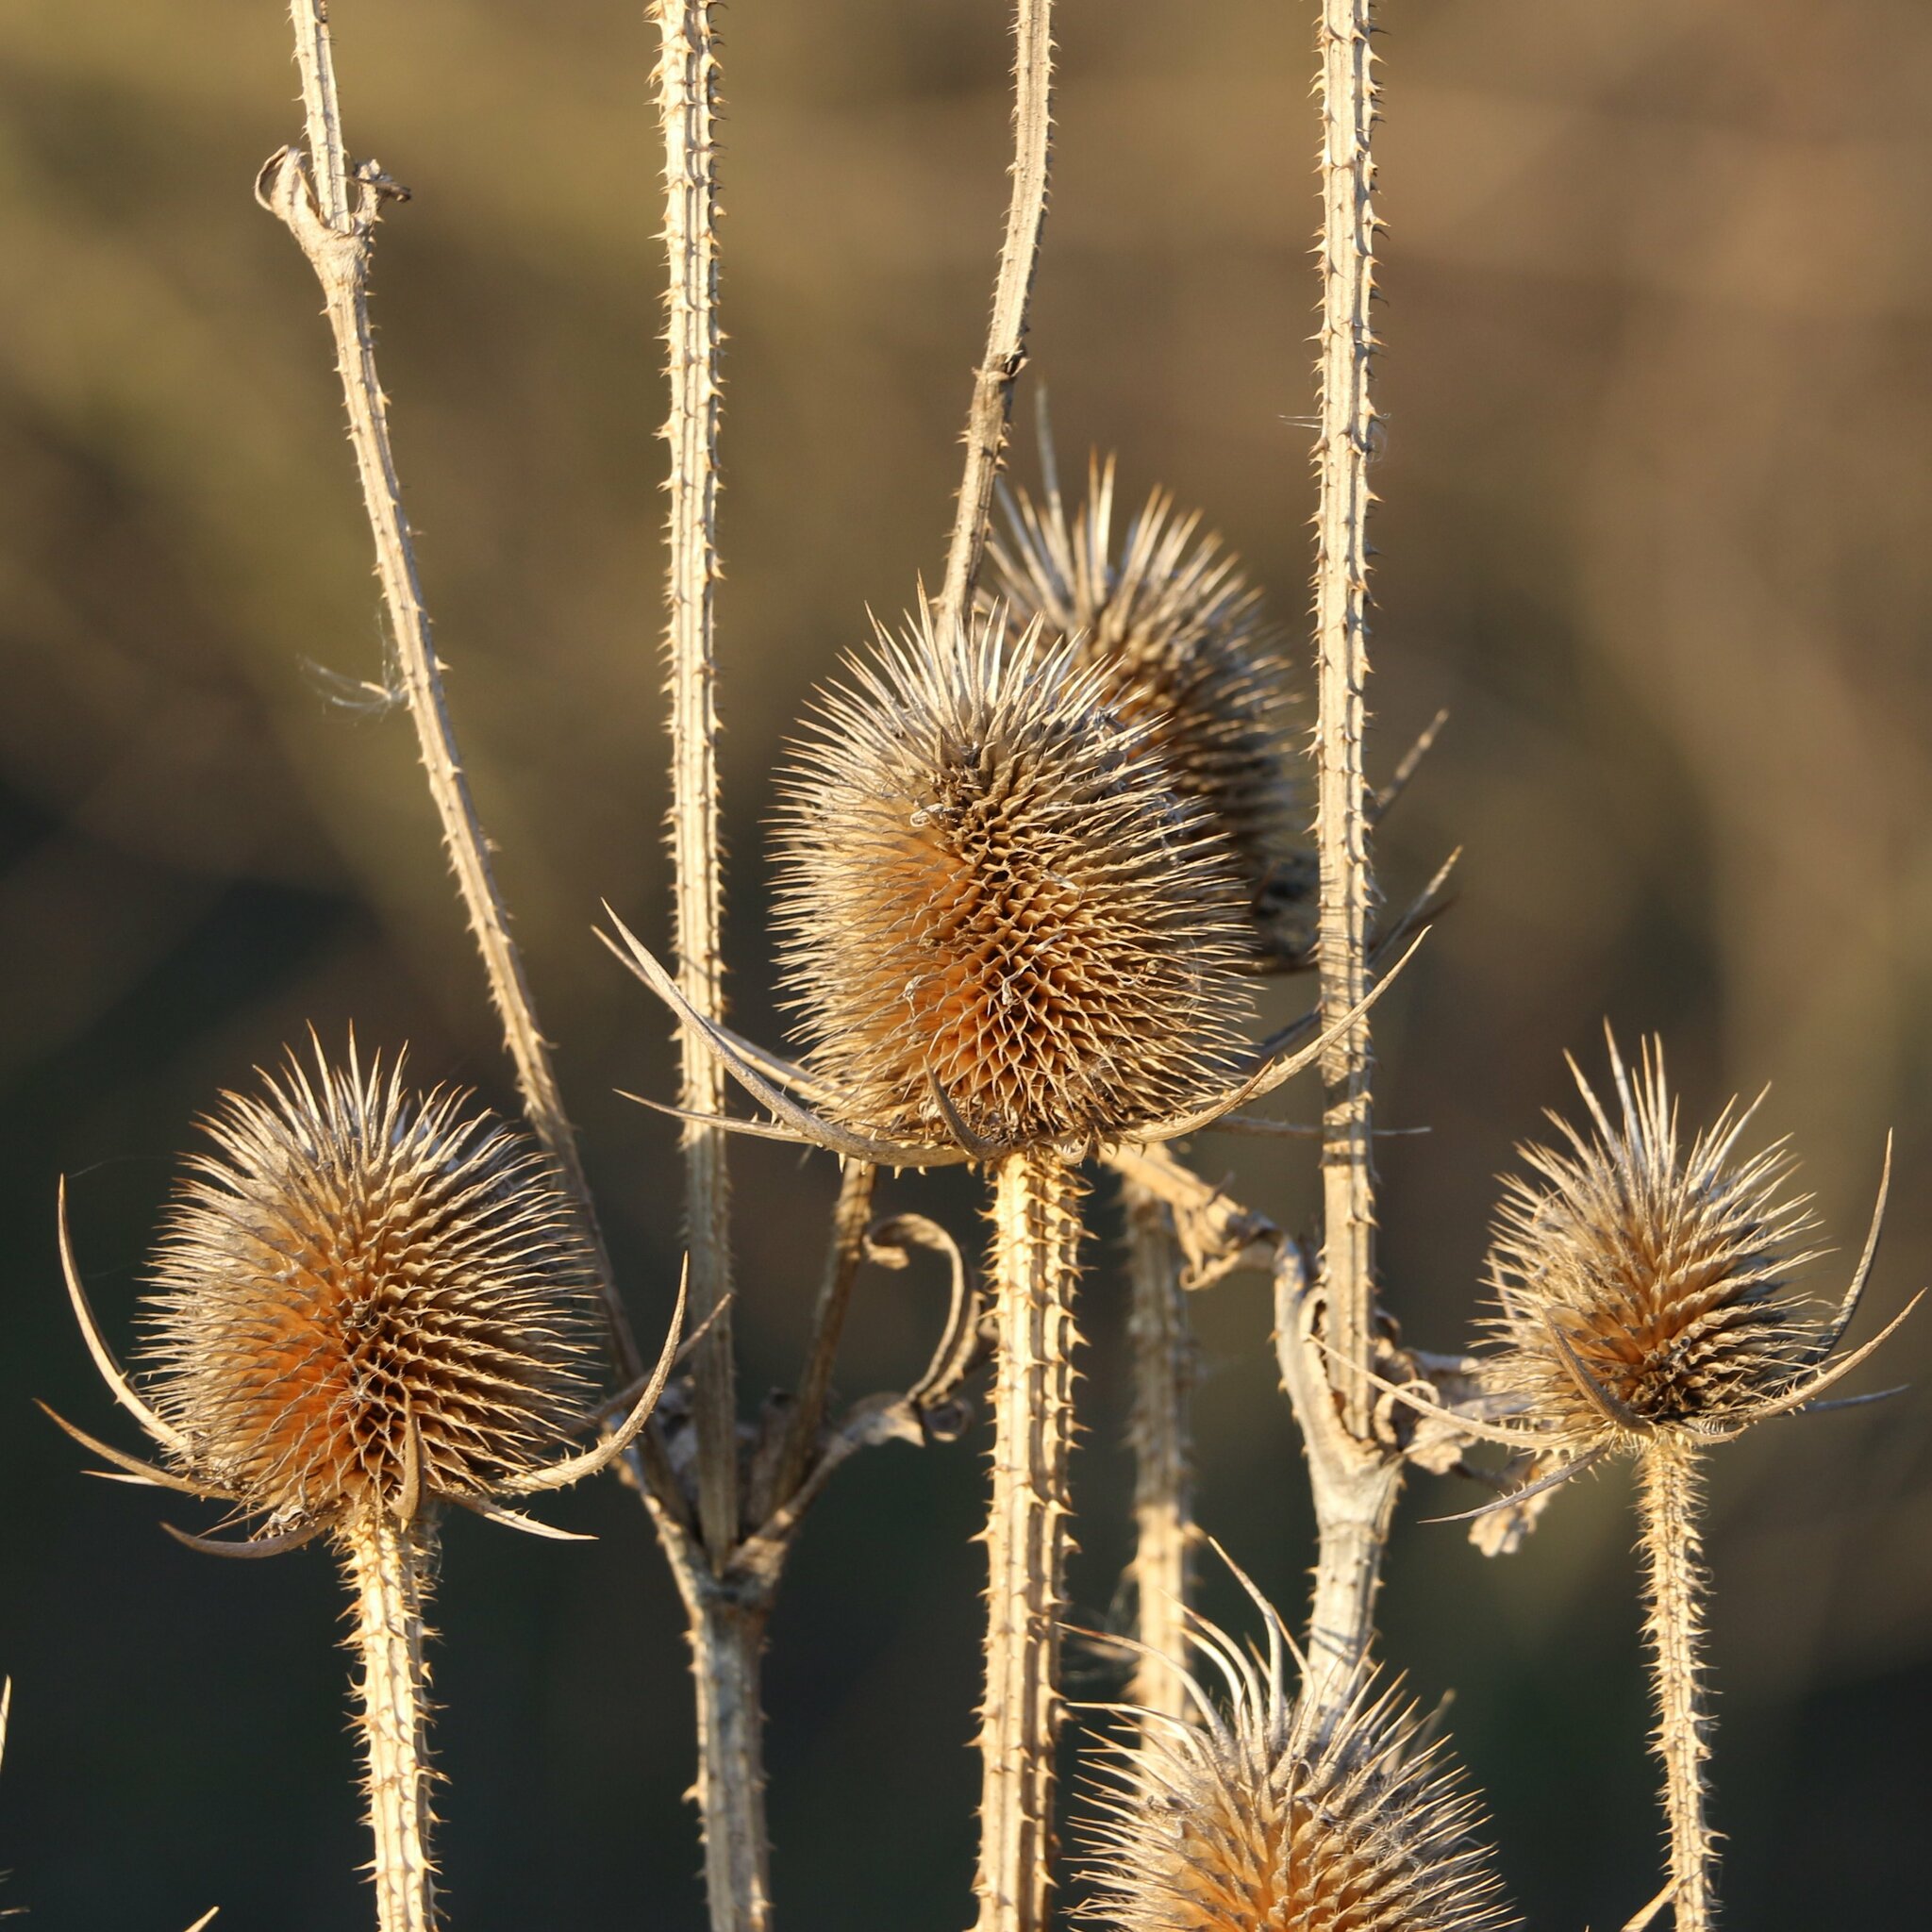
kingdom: Plantae
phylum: Tracheophyta
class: Magnoliopsida
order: Dipsacales
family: Caprifoliaceae
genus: Dipsacus
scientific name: Dipsacus laciniatus
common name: Cut-leaved teasel
